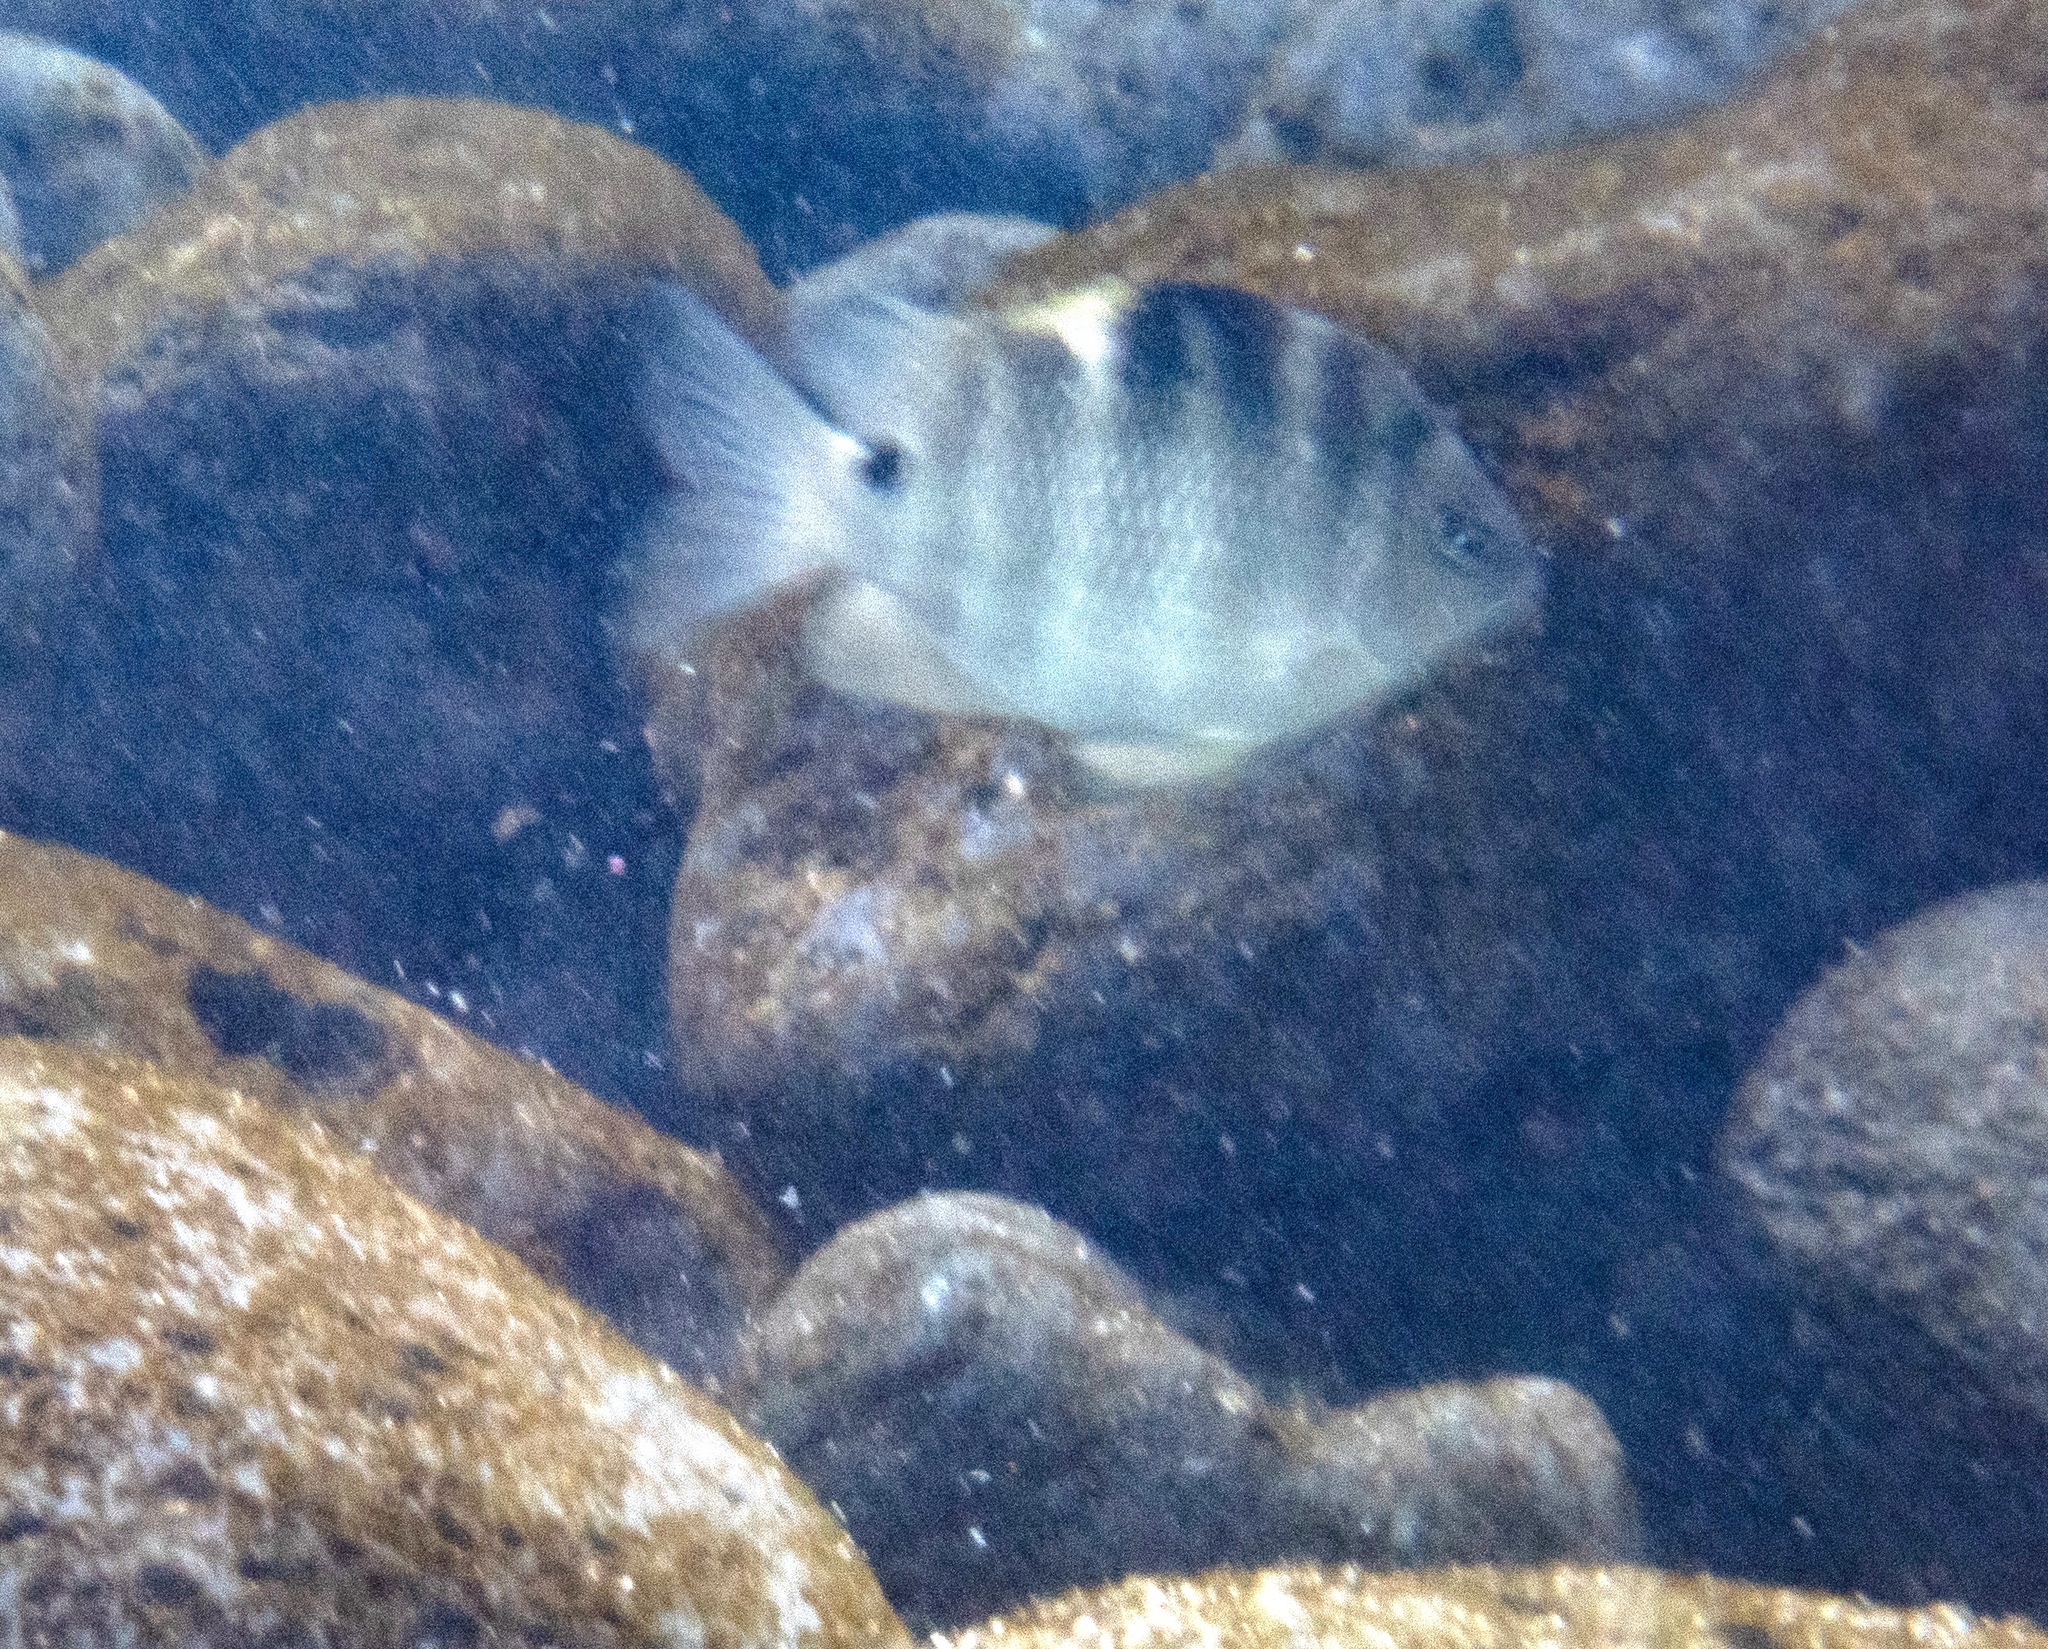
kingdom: Animalia
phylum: Chordata
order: Perciformes
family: Pomacentridae
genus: Abudefduf
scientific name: Abudefduf sordidus
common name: Blackspot sergeant
